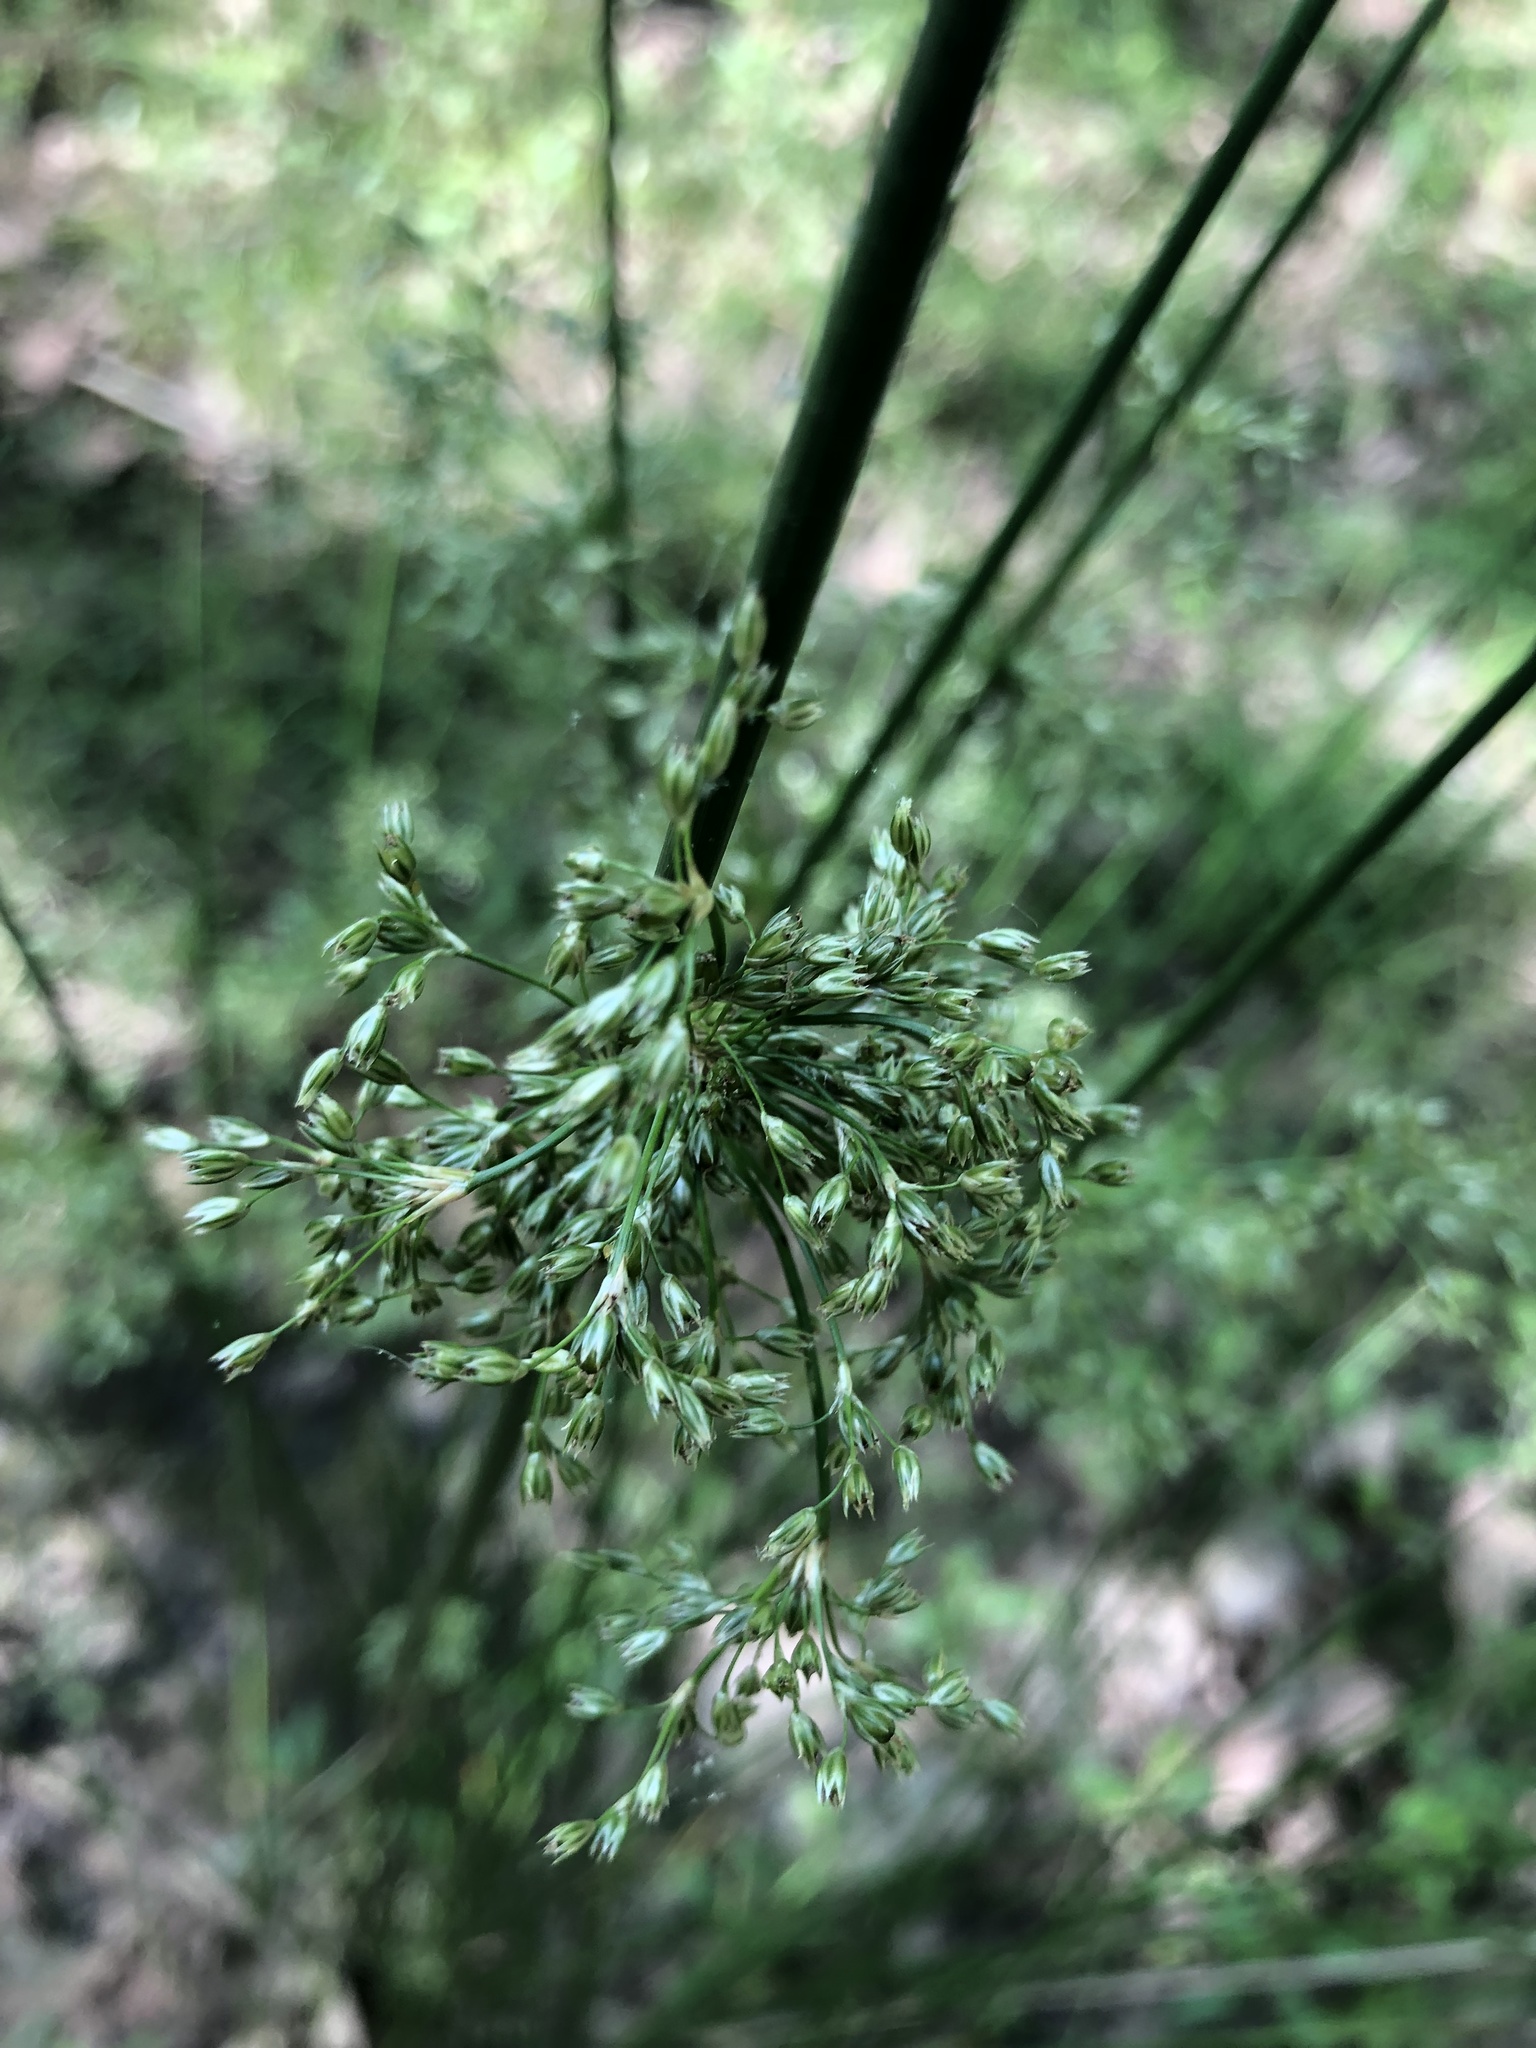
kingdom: Plantae
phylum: Tracheophyta
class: Liliopsida
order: Poales
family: Juncaceae
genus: Juncus
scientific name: Juncus effusus
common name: Soft rush
